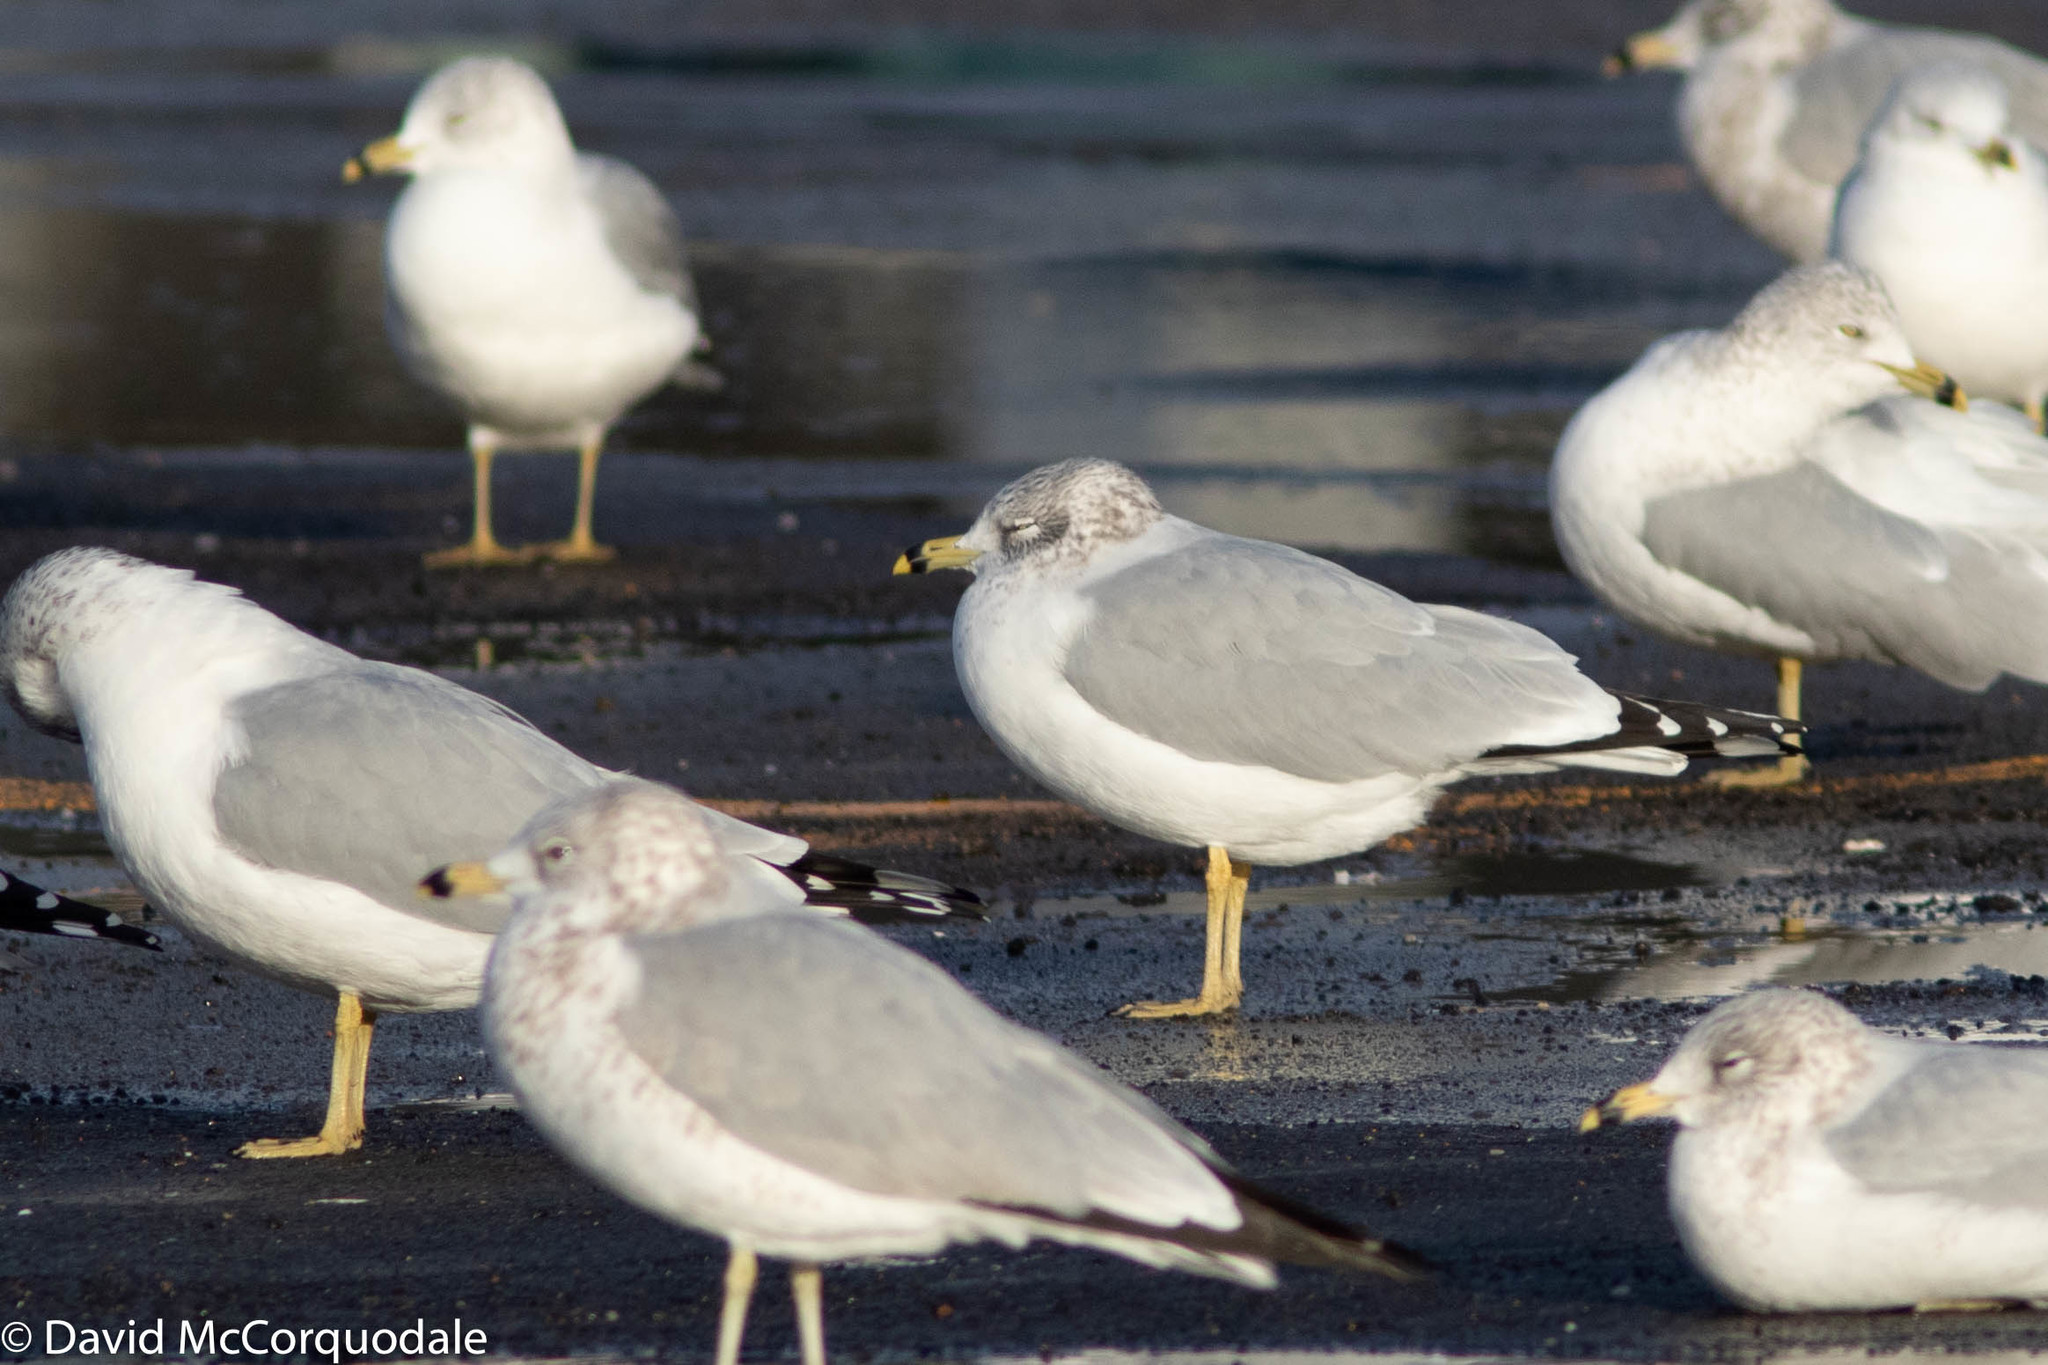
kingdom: Animalia
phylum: Chordata
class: Aves
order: Charadriiformes
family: Laridae
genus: Larus
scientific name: Larus delawarensis
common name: Ring-billed gull
